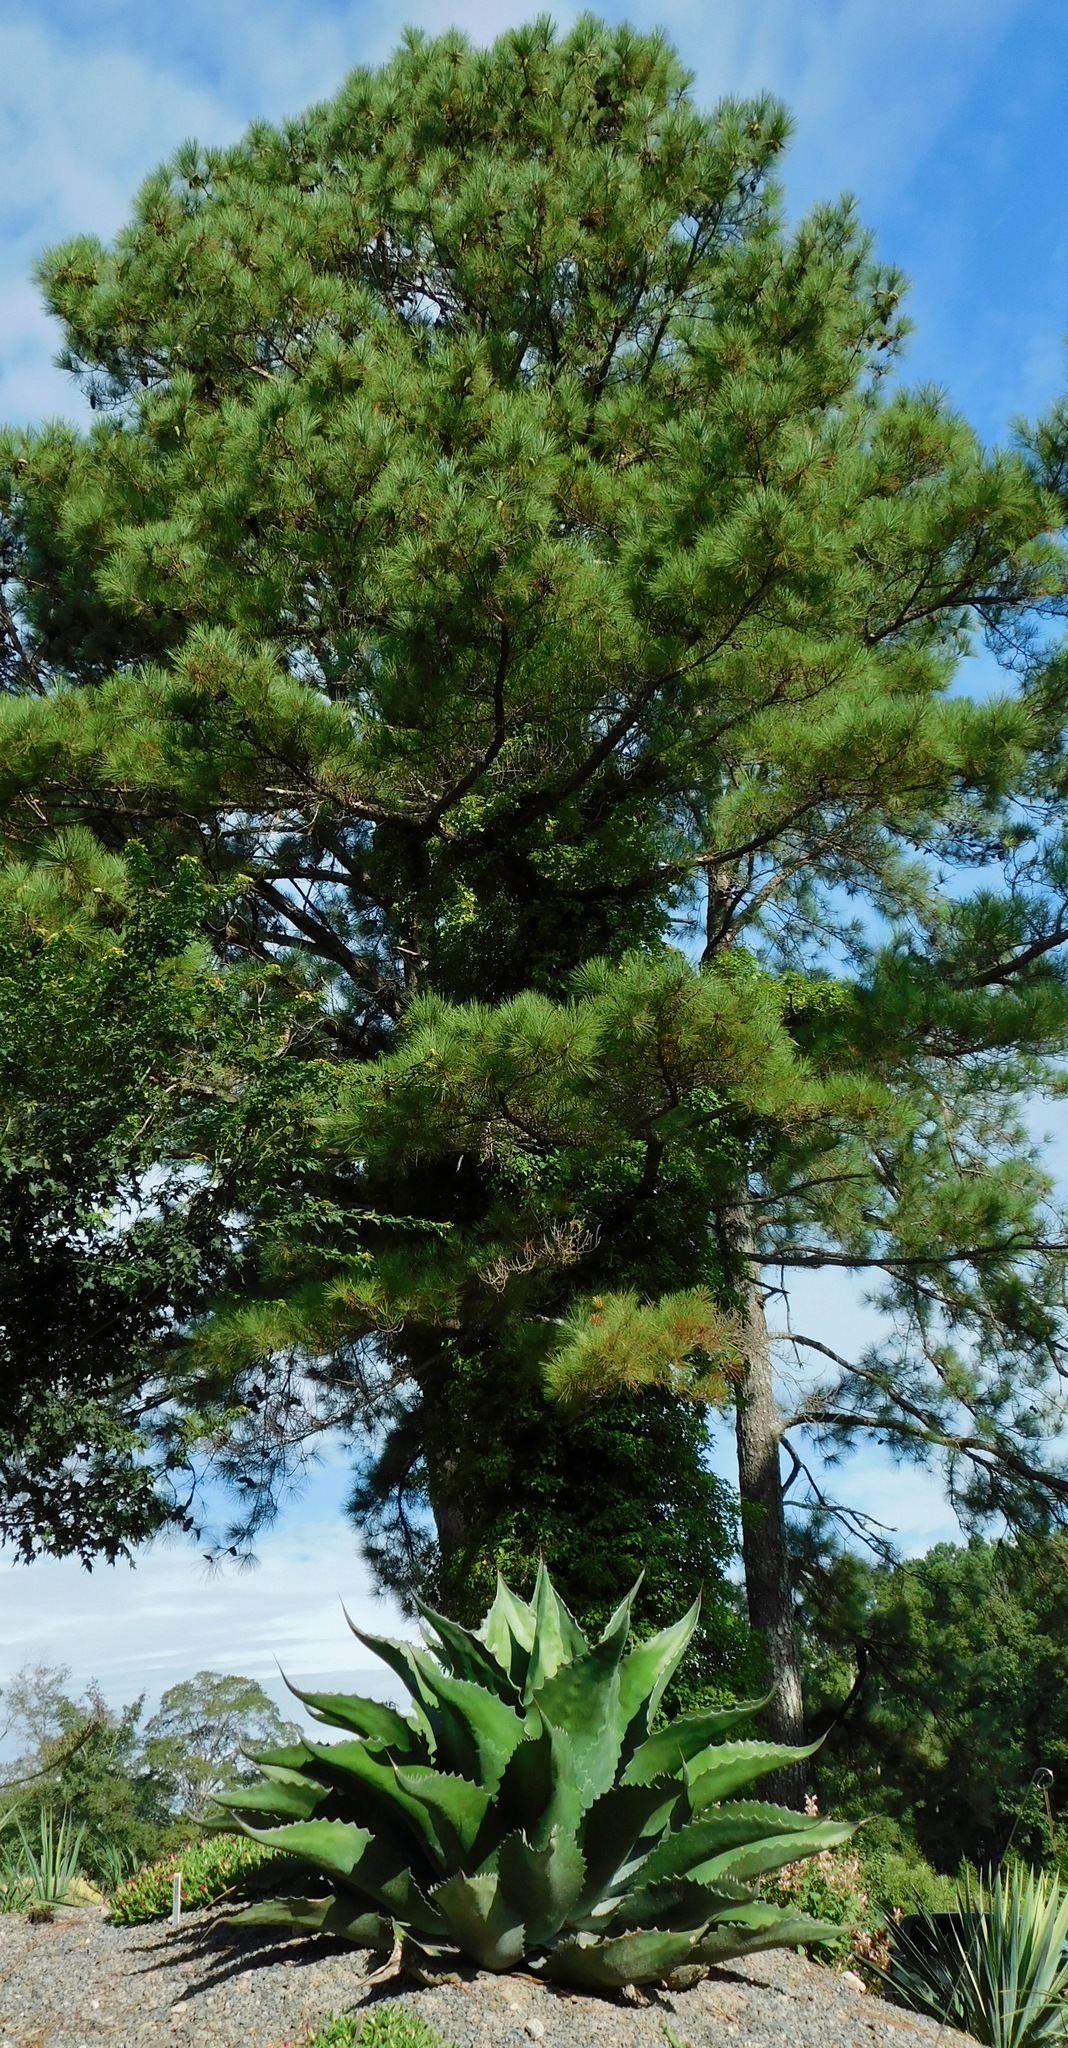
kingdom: Plantae
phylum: Tracheophyta
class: Pinopsida
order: Pinales
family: Pinaceae
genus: Pinus
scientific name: Pinus taeda
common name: Loblolly pine
